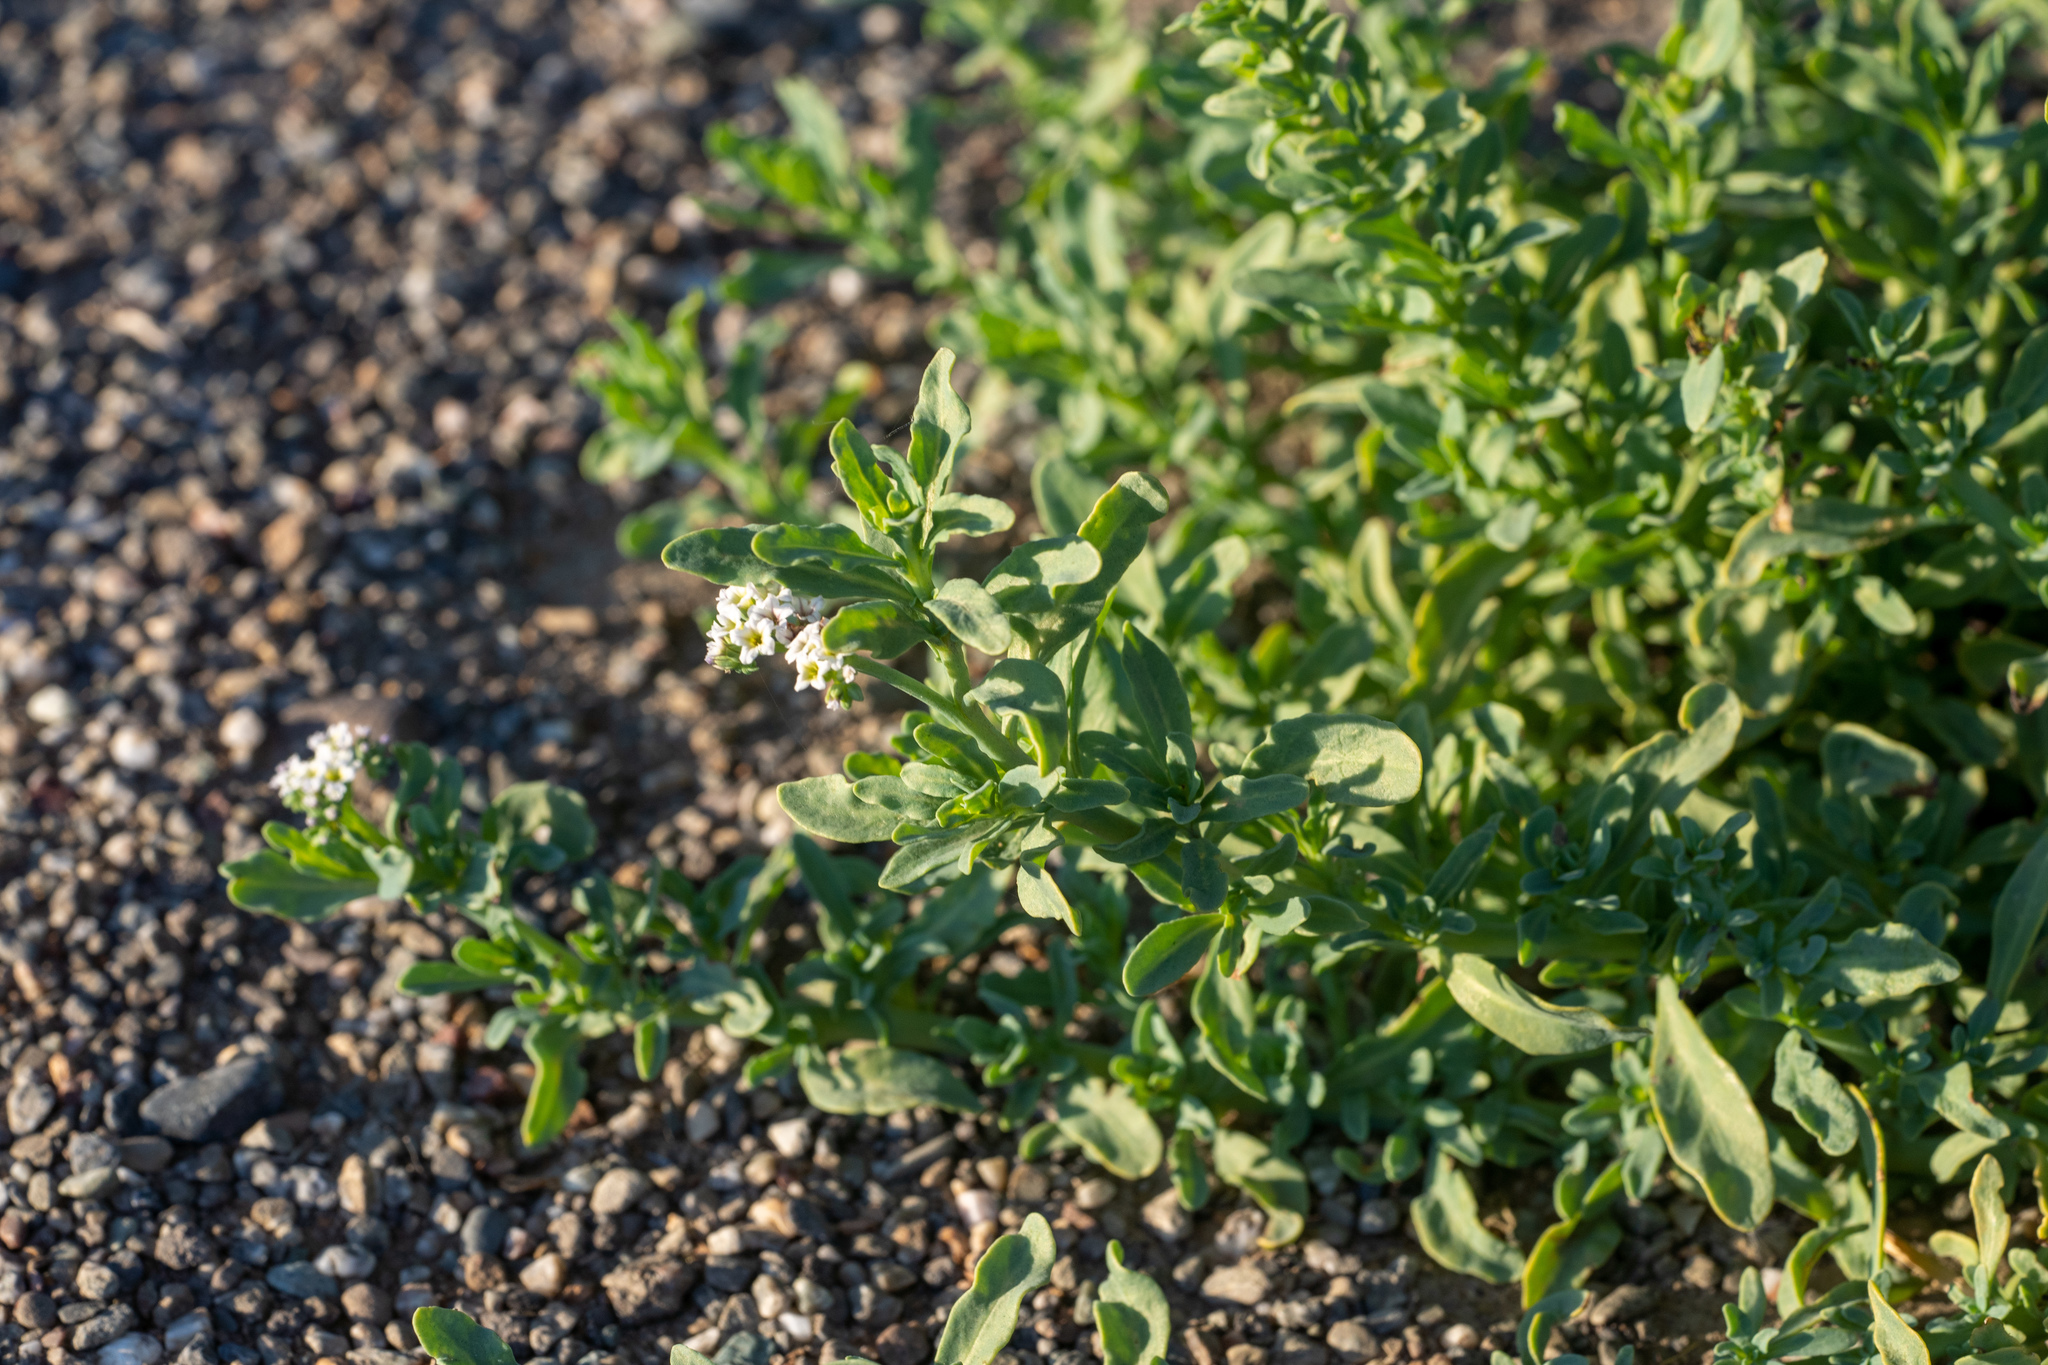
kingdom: Plantae
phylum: Tracheophyta
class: Magnoliopsida
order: Boraginales
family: Heliotropiaceae
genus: Heliotropium
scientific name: Heliotropium curassavicum
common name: Seaside heliotrope
